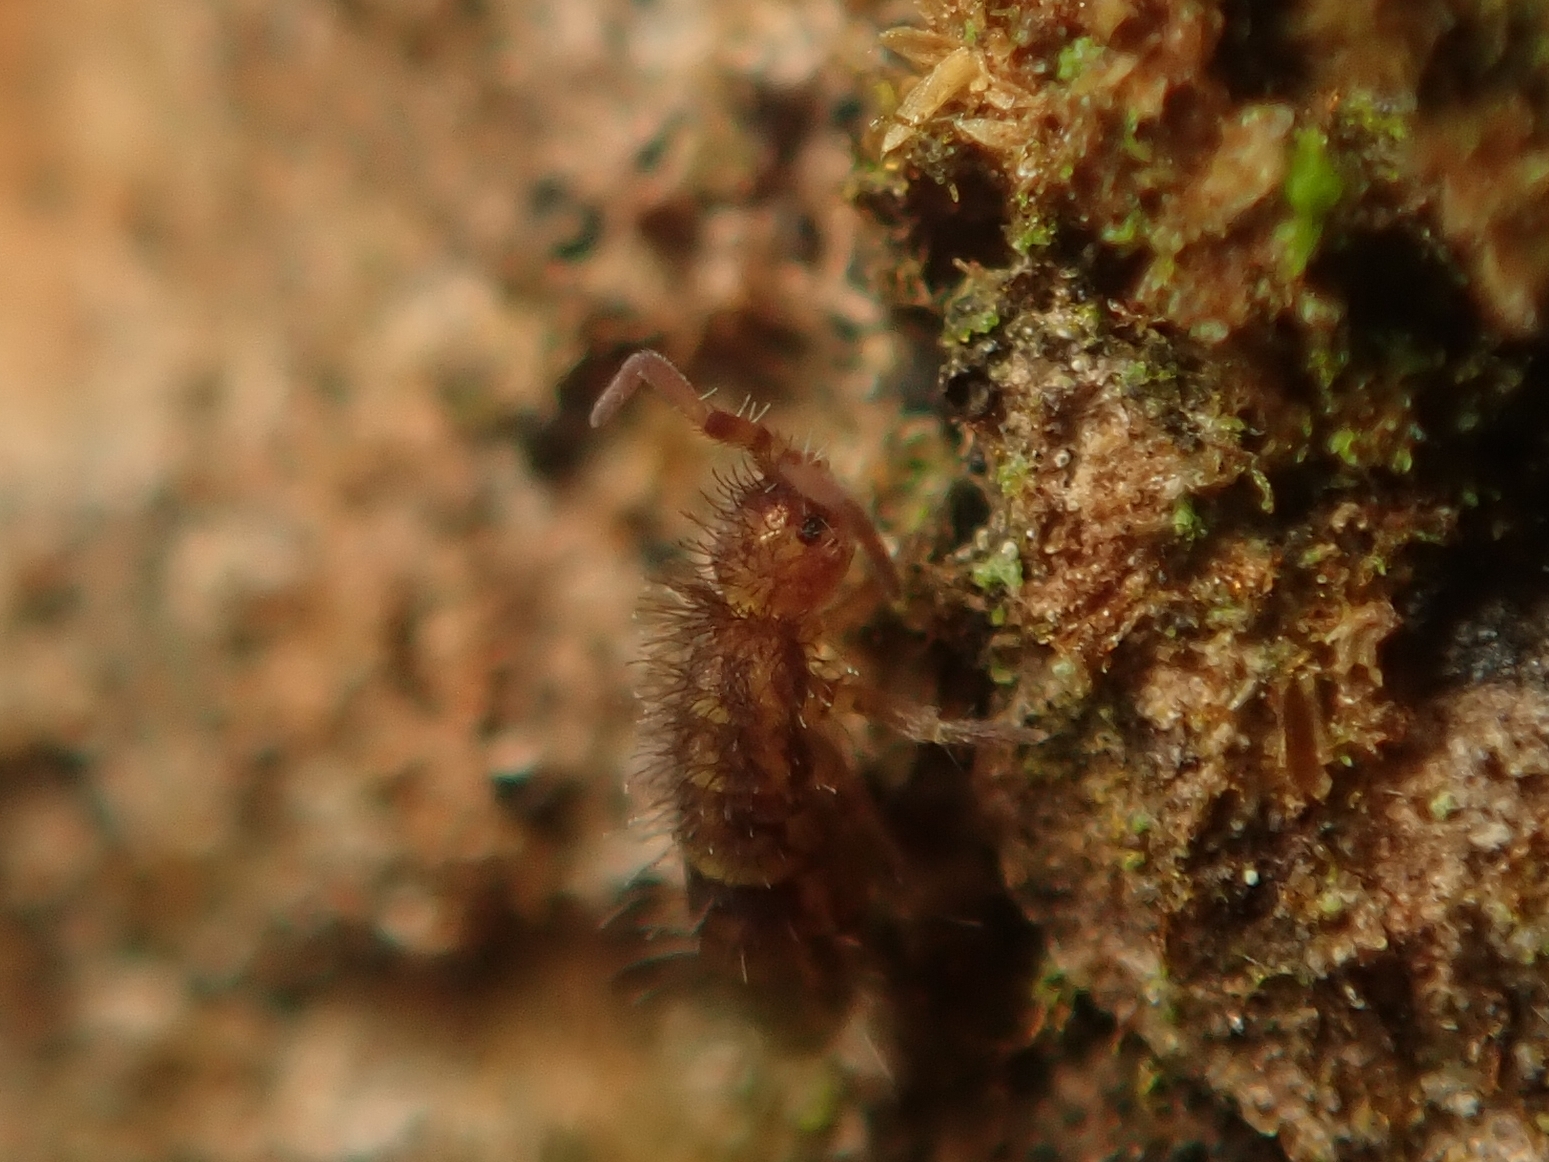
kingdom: Animalia
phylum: Arthropoda
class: Collembola
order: Entomobryomorpha
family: Orchesellidae
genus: Orchesella
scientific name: Orchesella cincta
